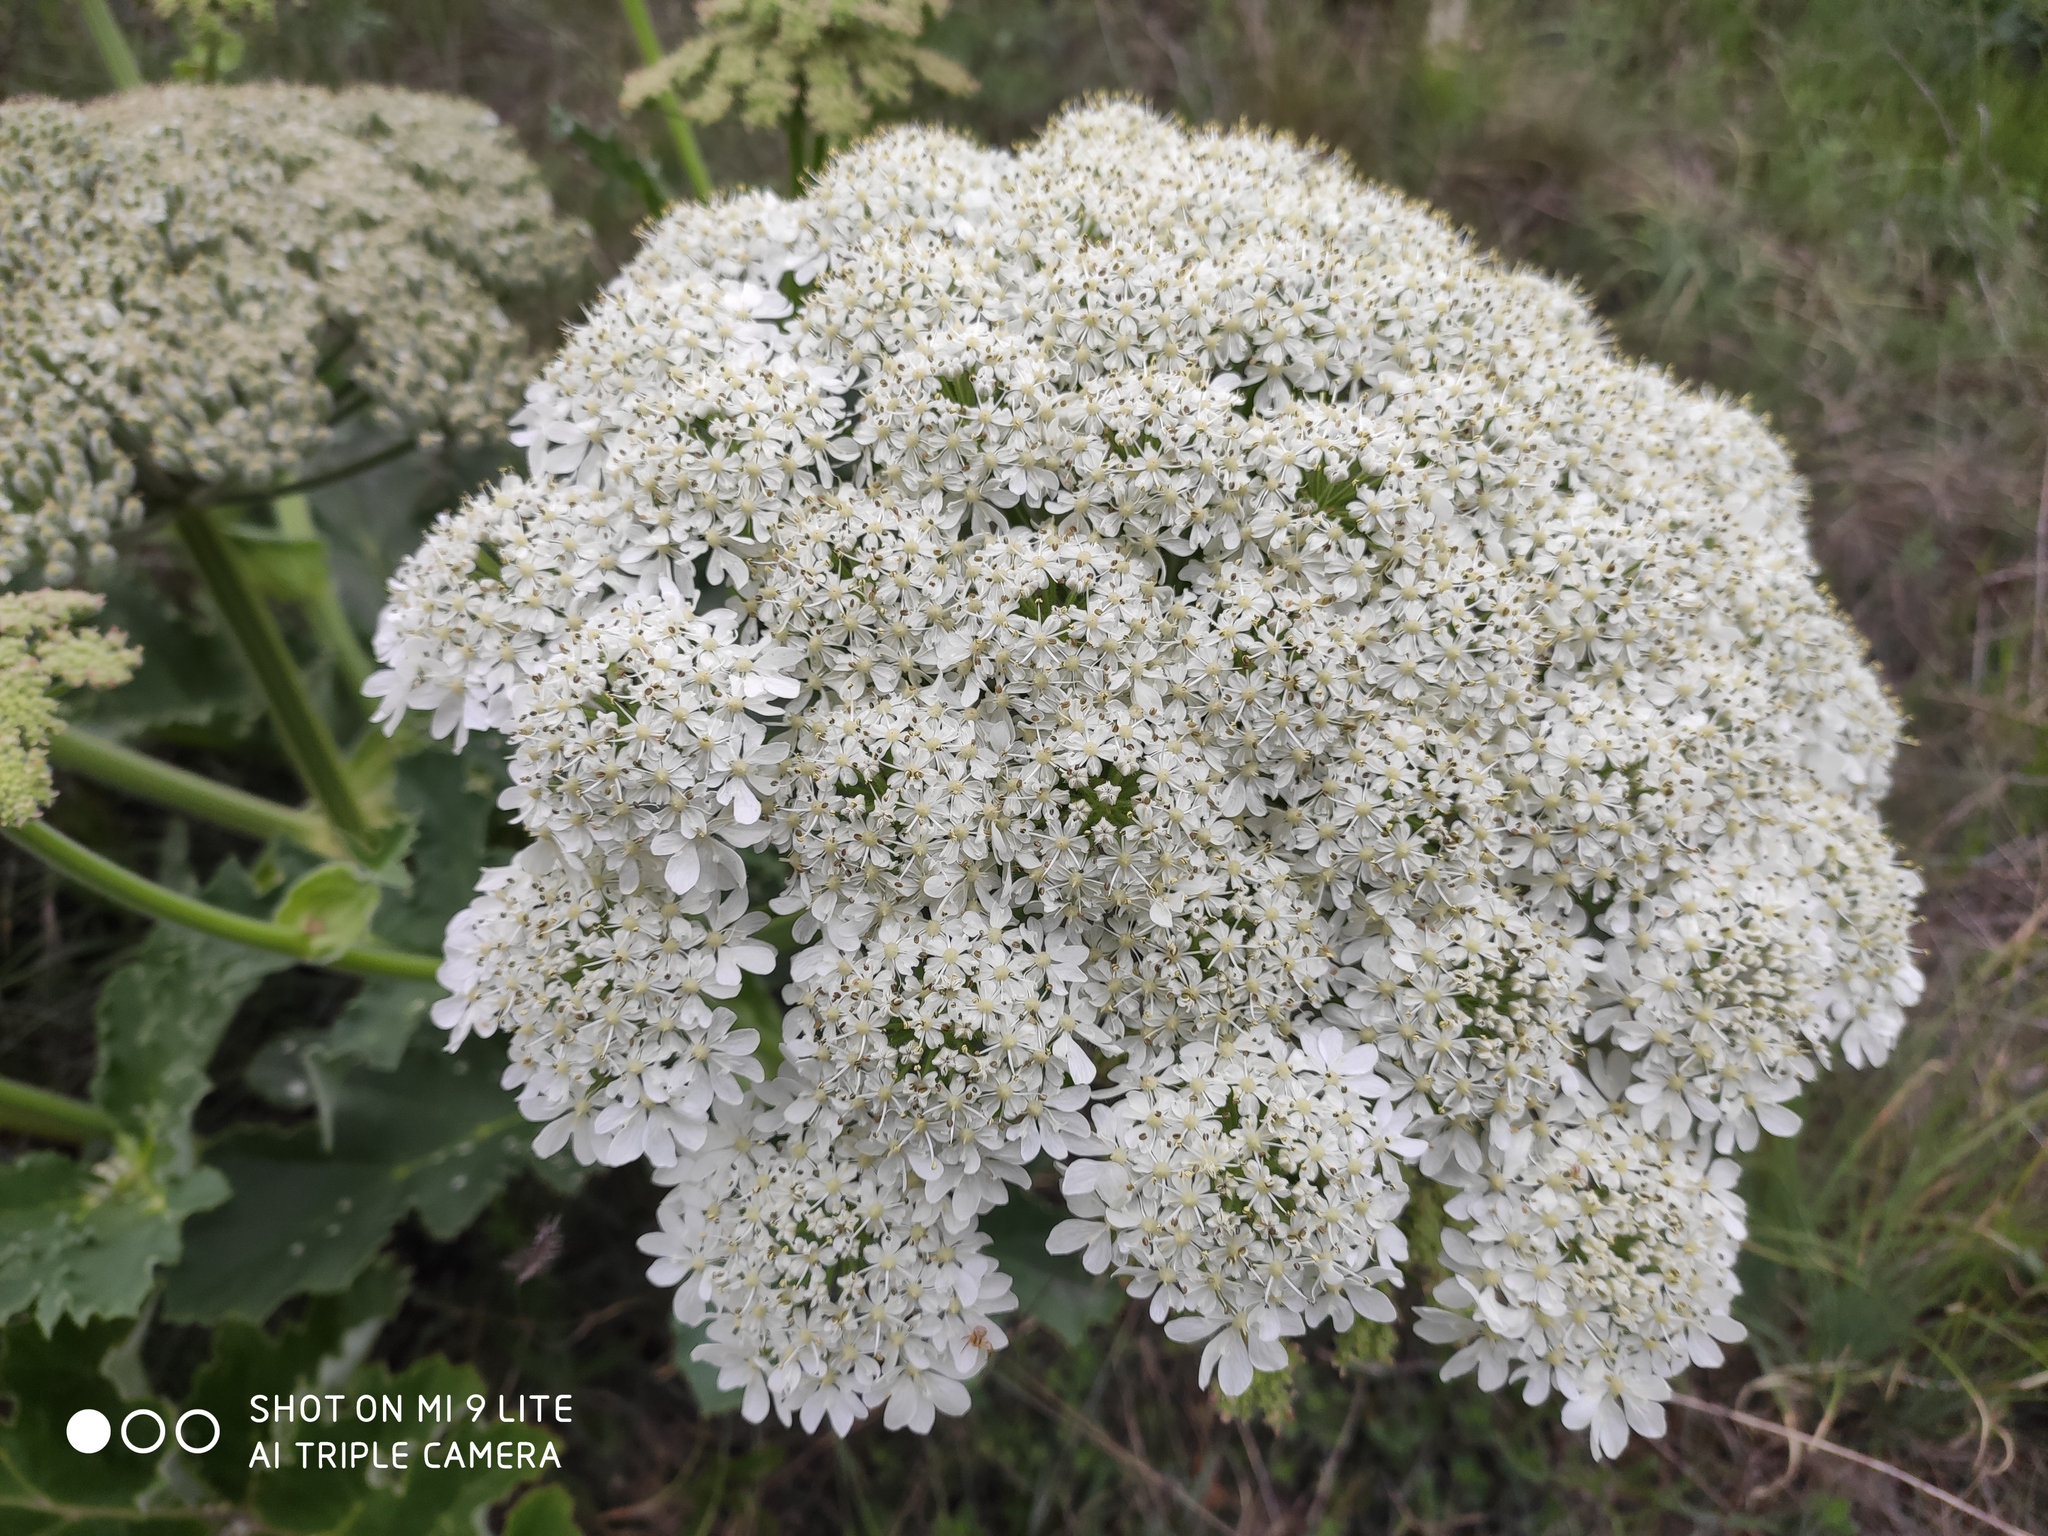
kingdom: Plantae
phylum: Tracheophyta
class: Magnoliopsida
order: Apiales
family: Apiaceae
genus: Heracleum
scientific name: Heracleum stevenii
